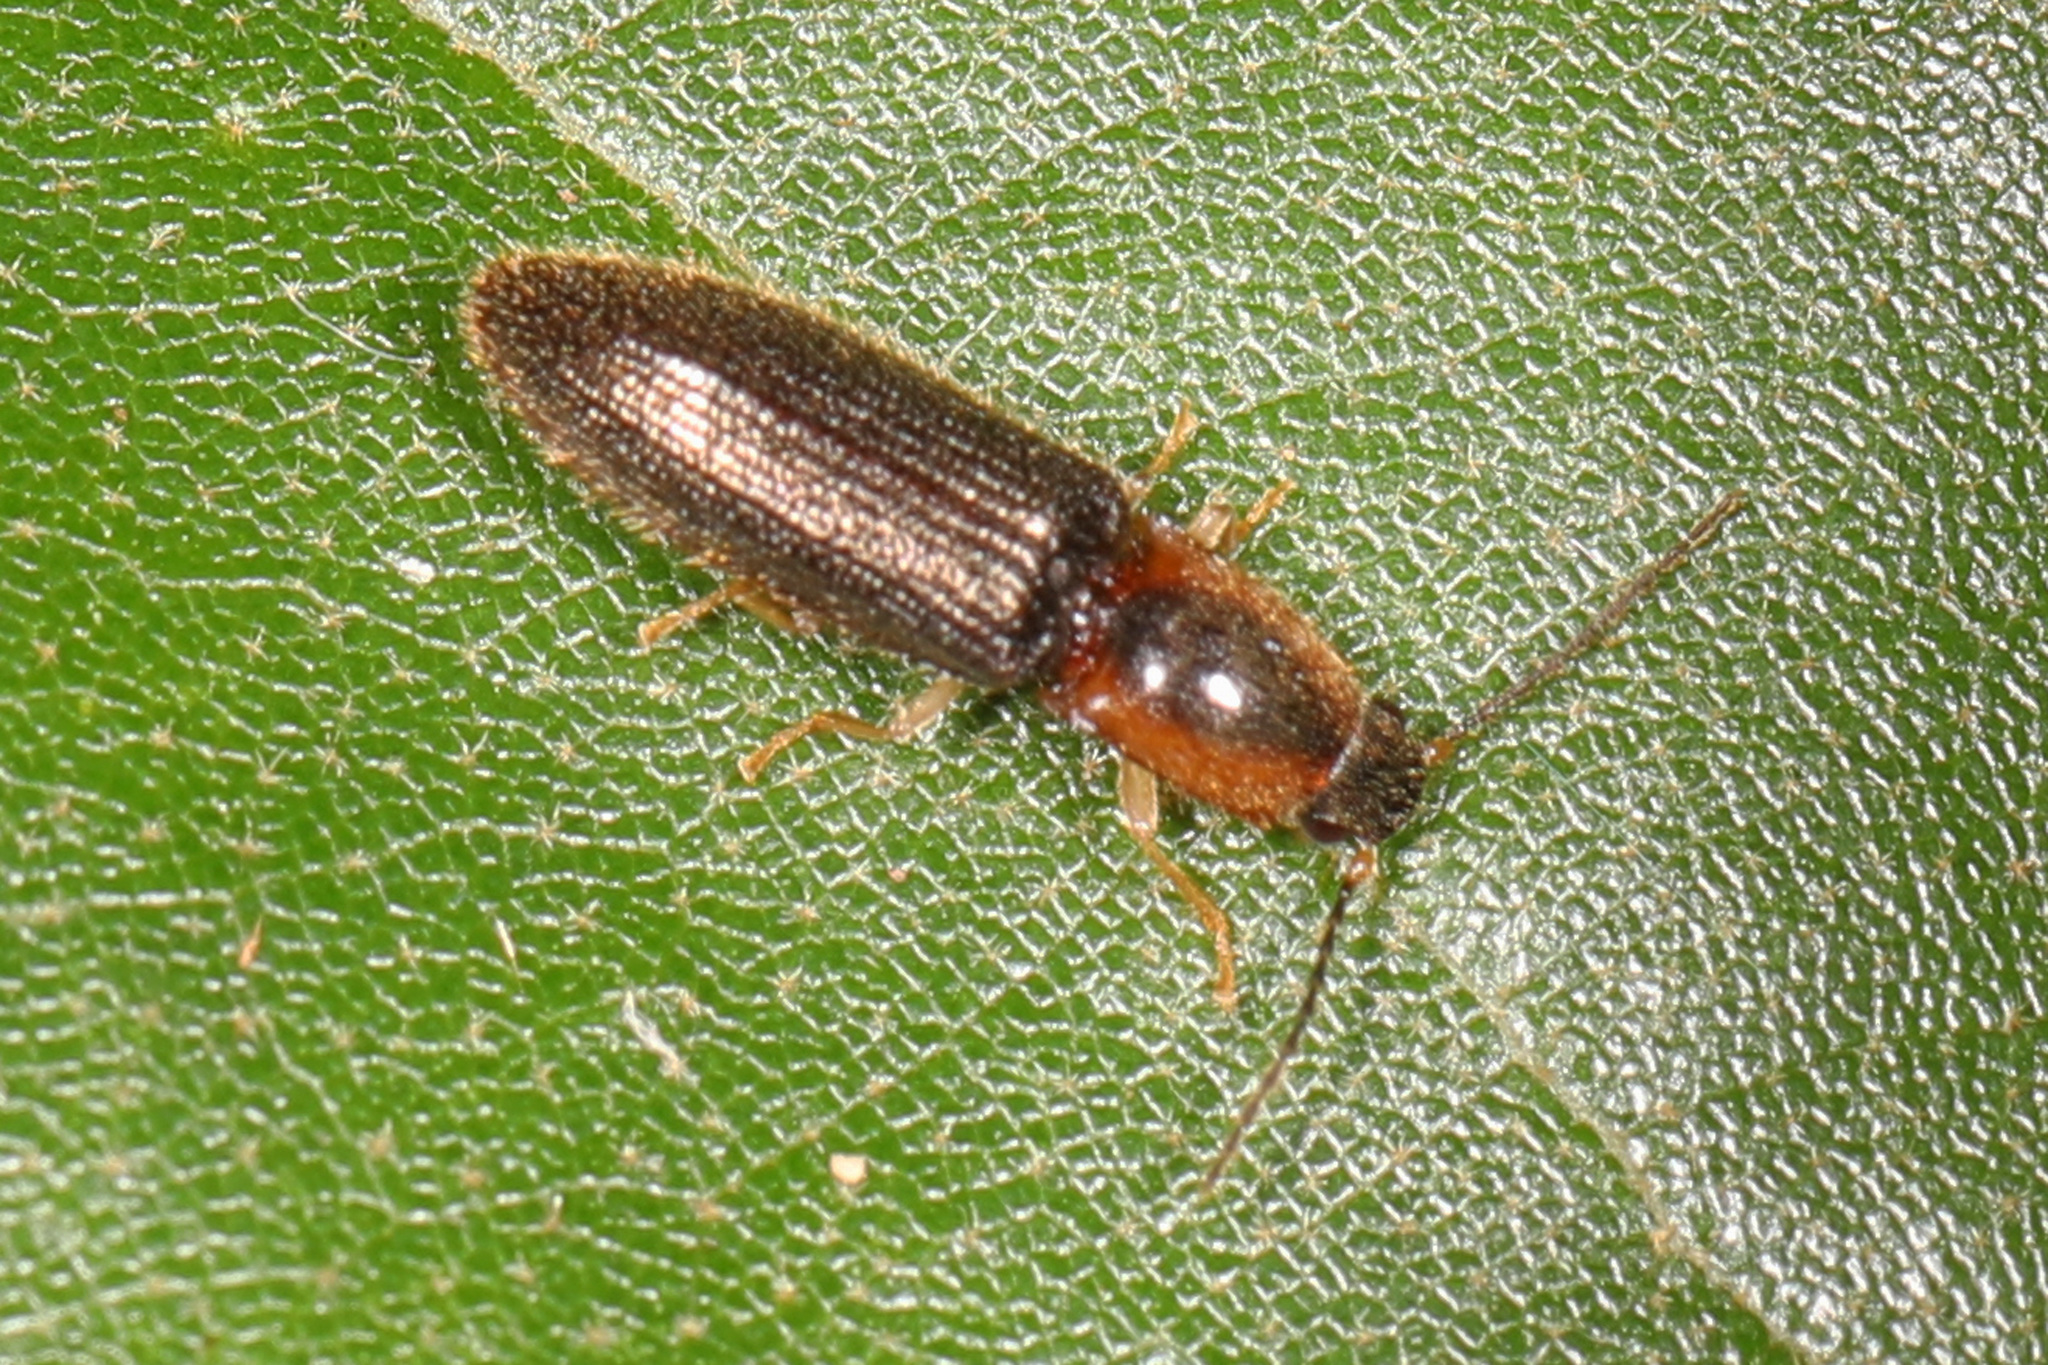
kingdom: Animalia
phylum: Arthropoda
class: Insecta
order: Coleoptera
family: Elateridae
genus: Athous
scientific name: Athous neacanthus
